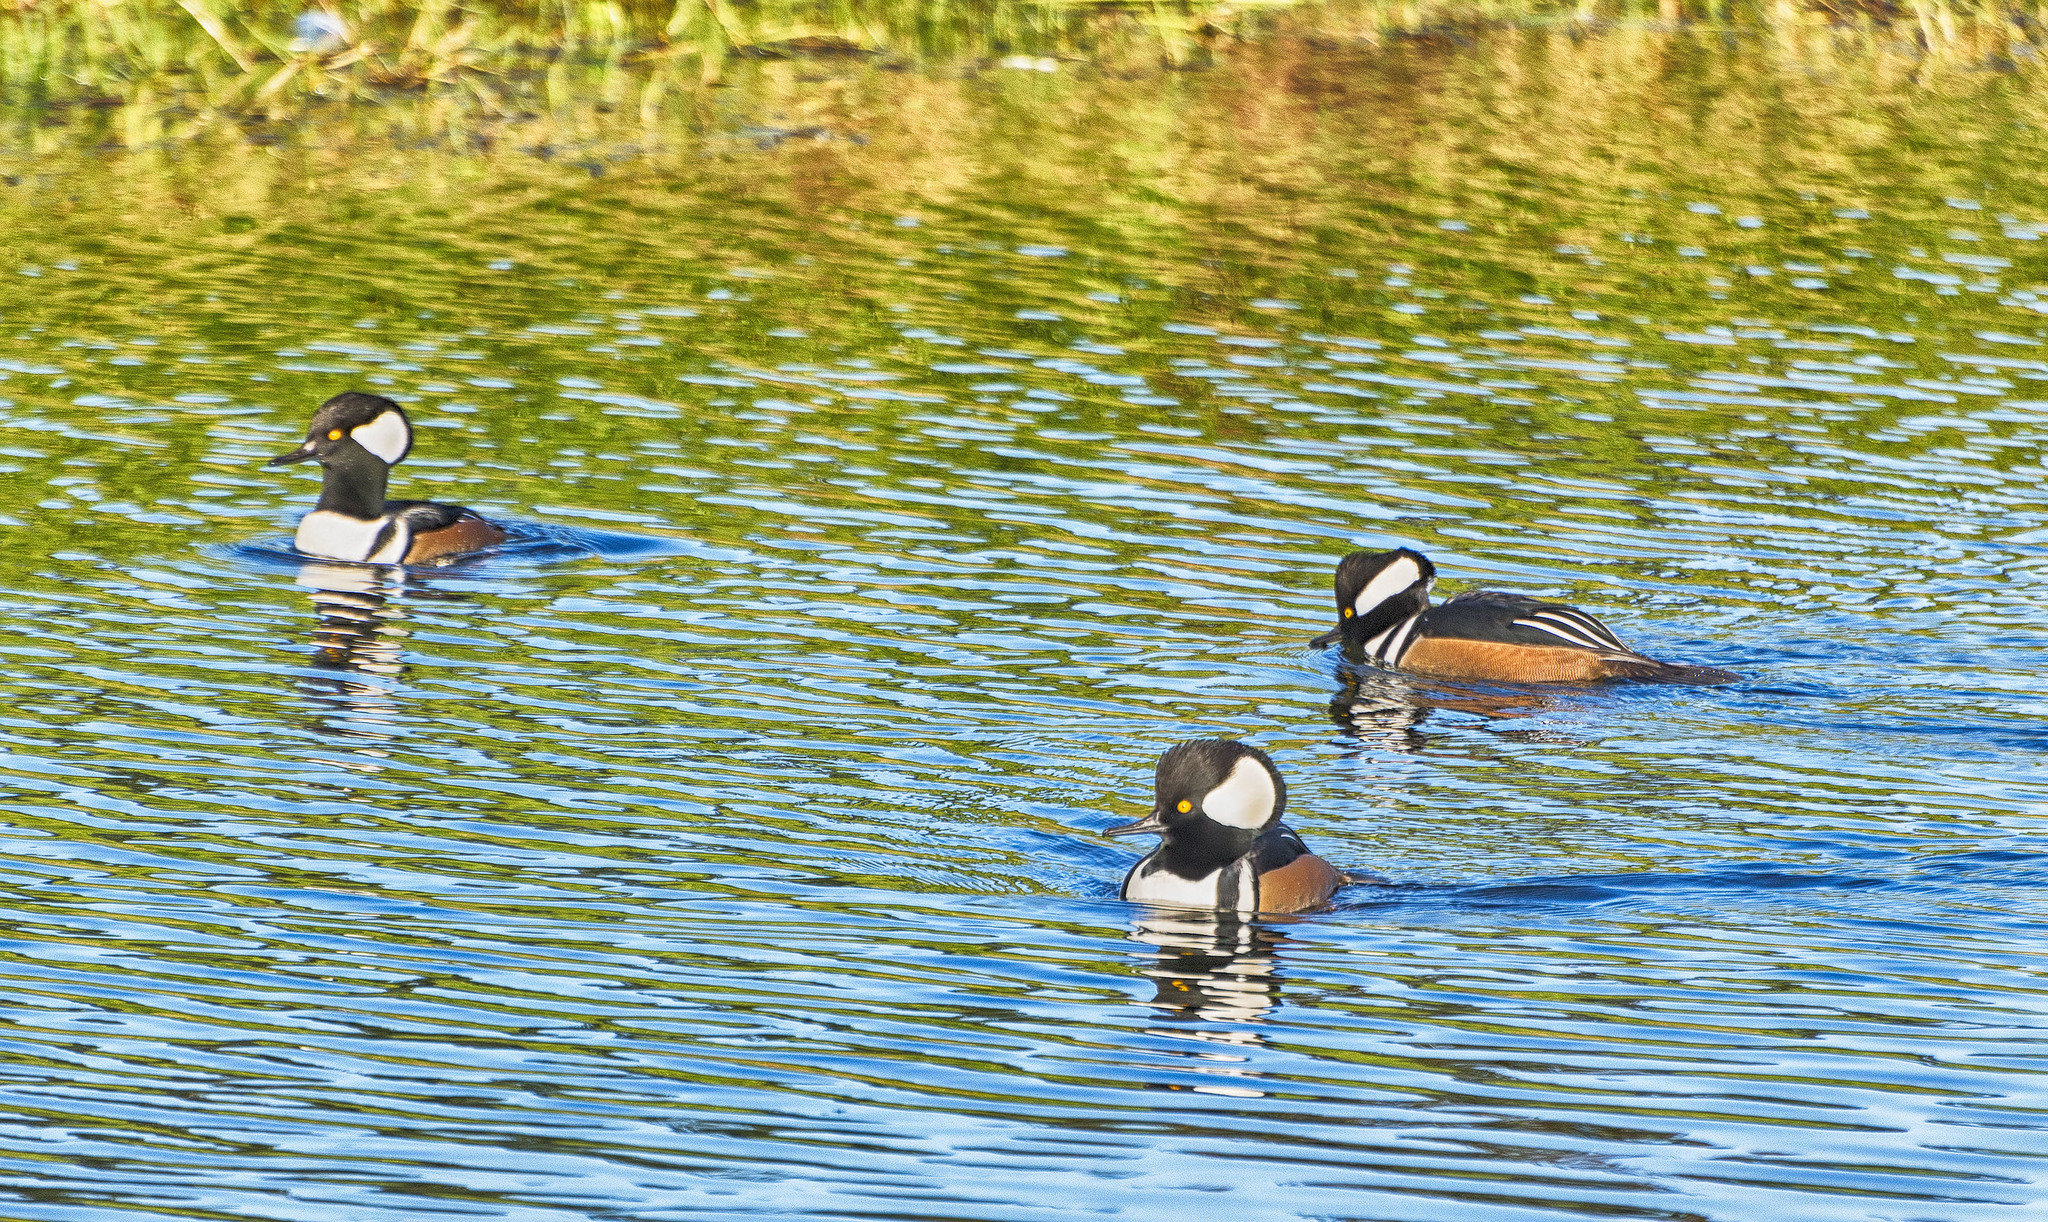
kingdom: Animalia
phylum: Chordata
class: Aves
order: Anseriformes
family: Anatidae
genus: Lophodytes
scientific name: Lophodytes cucullatus
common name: Hooded merganser
